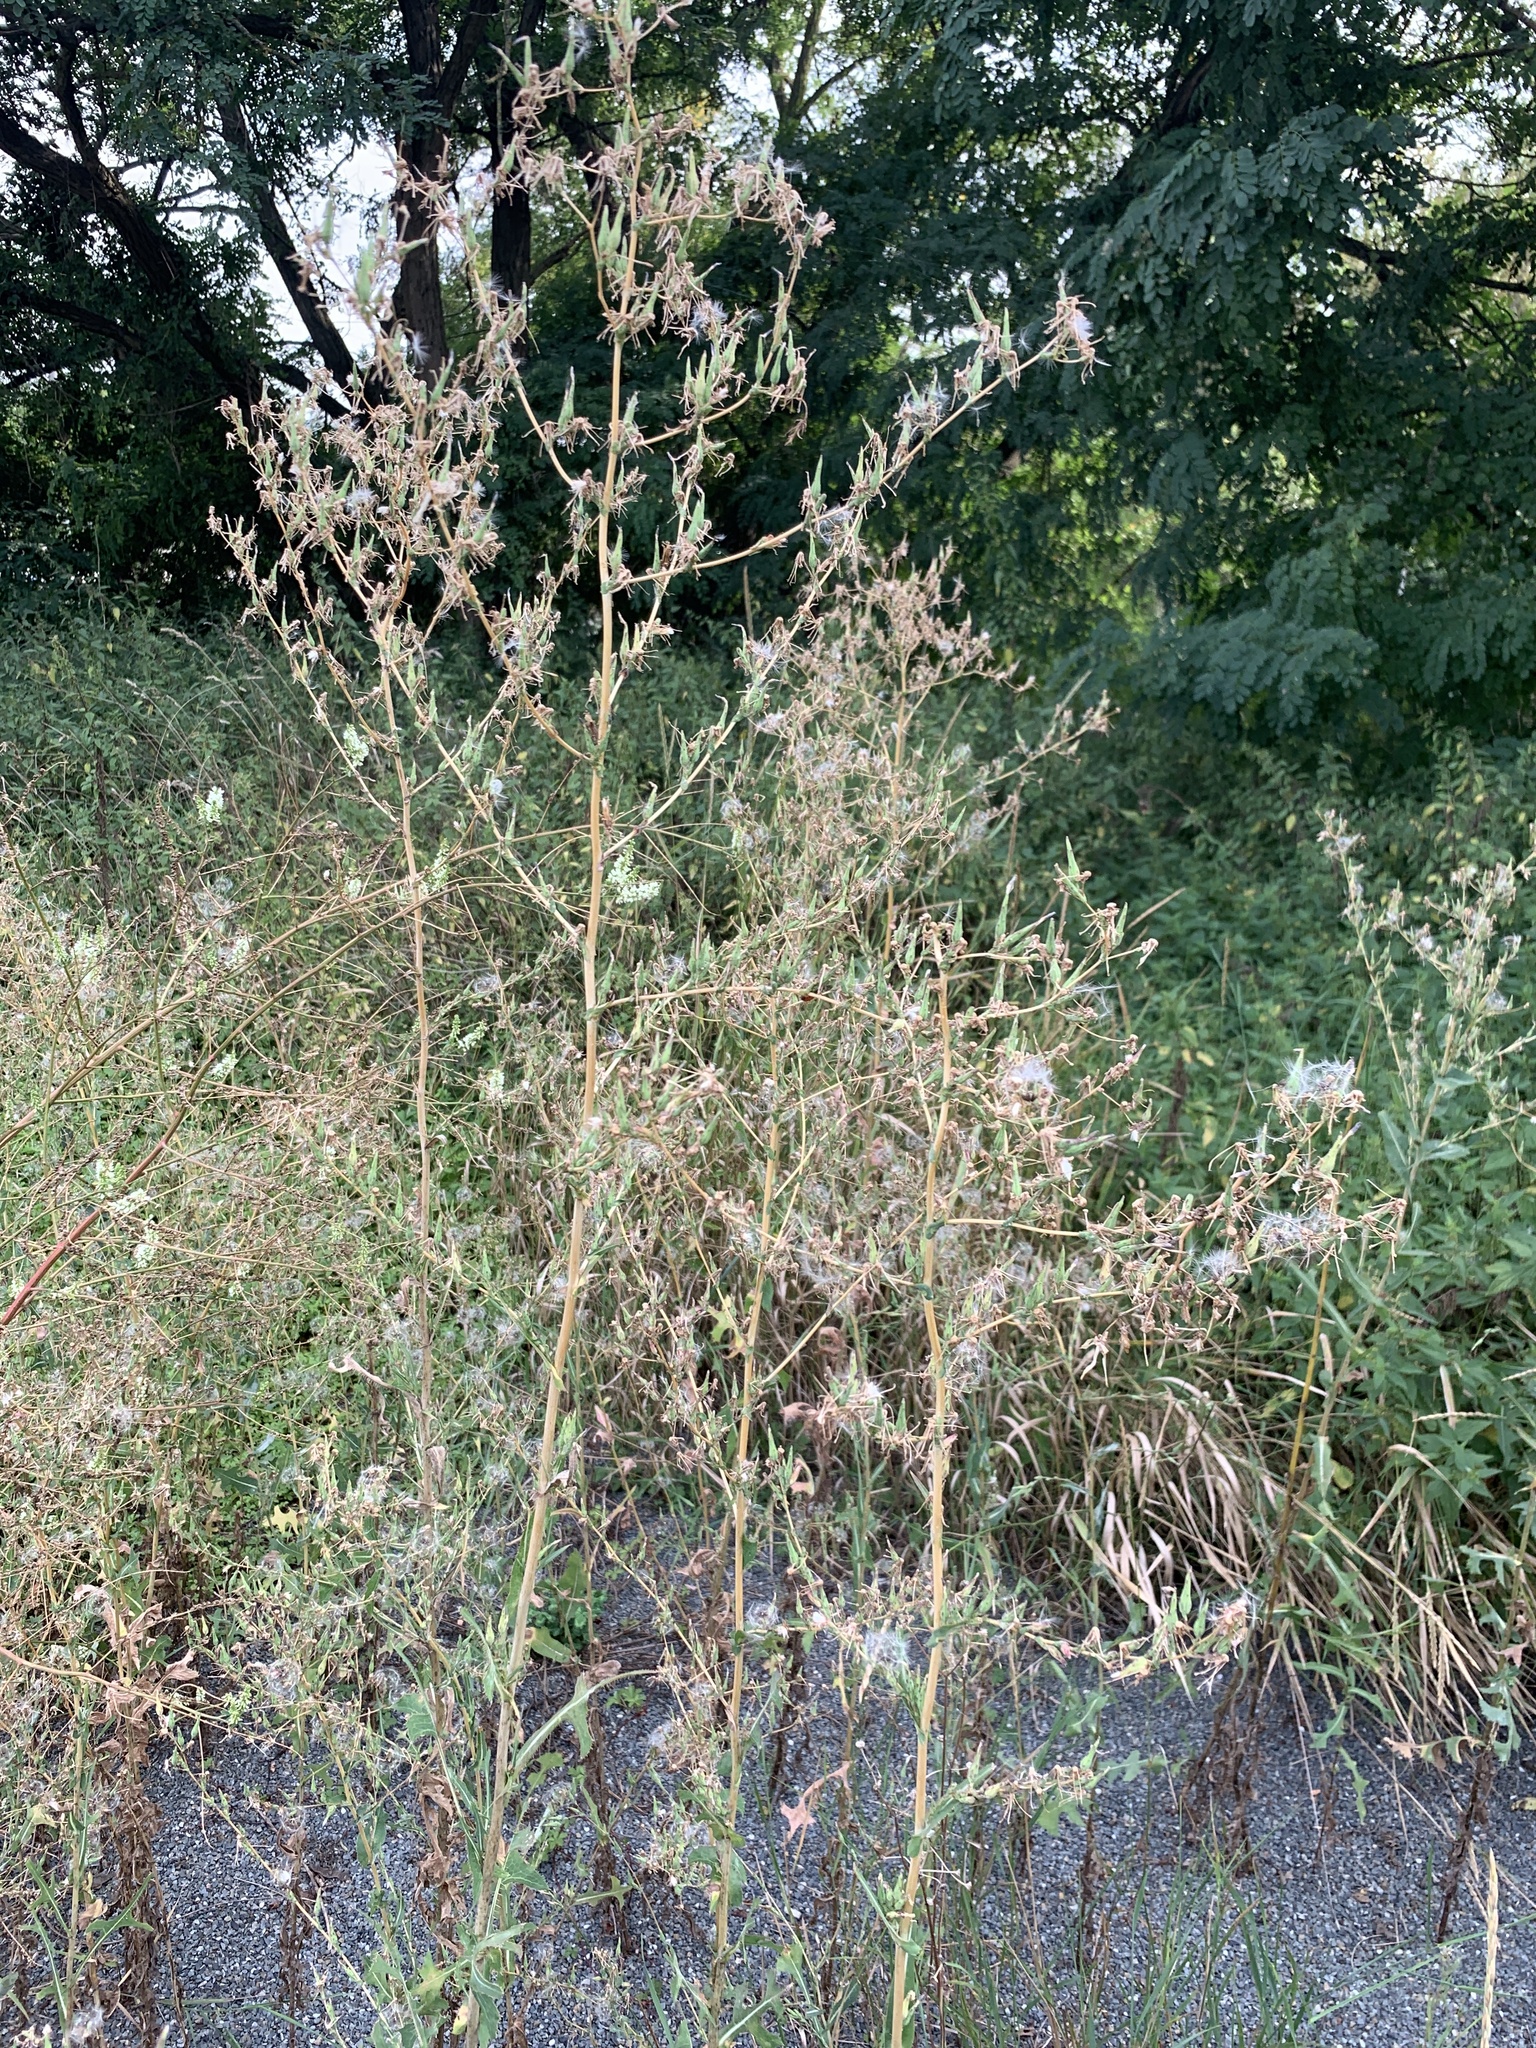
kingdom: Plantae
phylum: Tracheophyta
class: Magnoliopsida
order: Asterales
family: Asteraceae
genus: Lactuca
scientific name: Lactuca serriola
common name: Prickly lettuce
